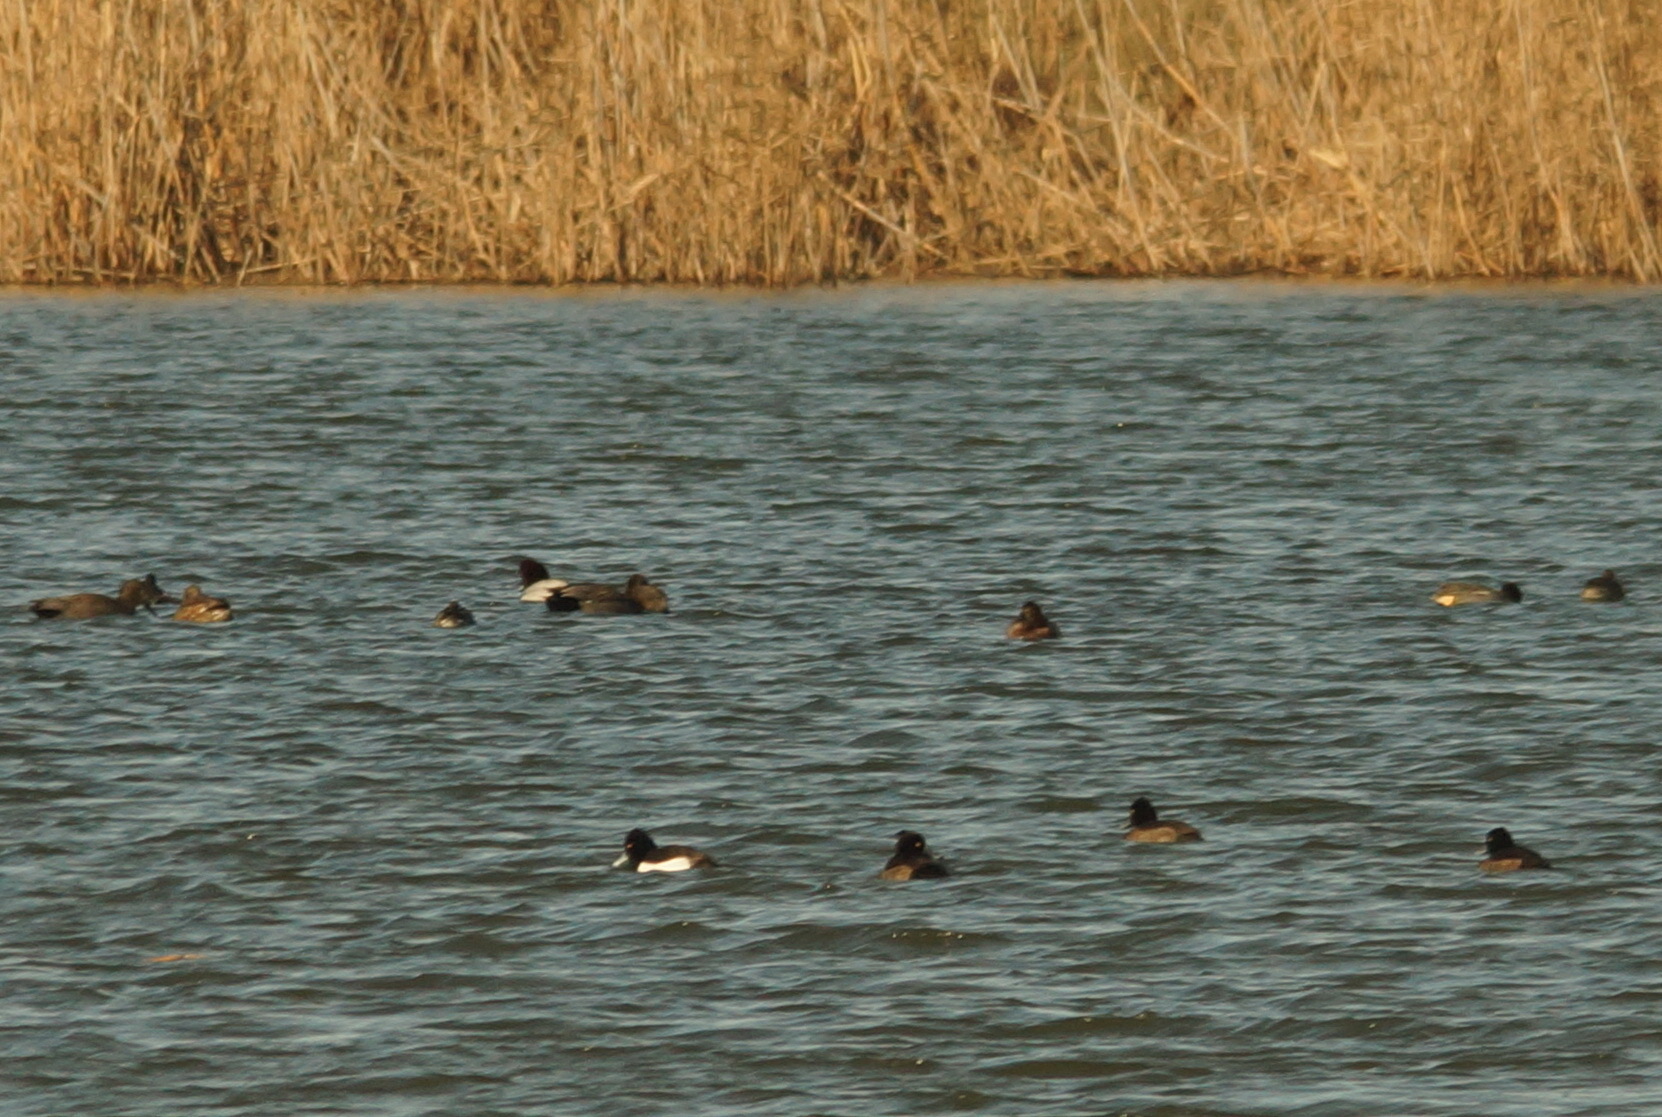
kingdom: Animalia
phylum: Chordata
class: Aves
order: Anseriformes
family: Anatidae
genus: Aythya
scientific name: Aythya ferina
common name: Common pochard
